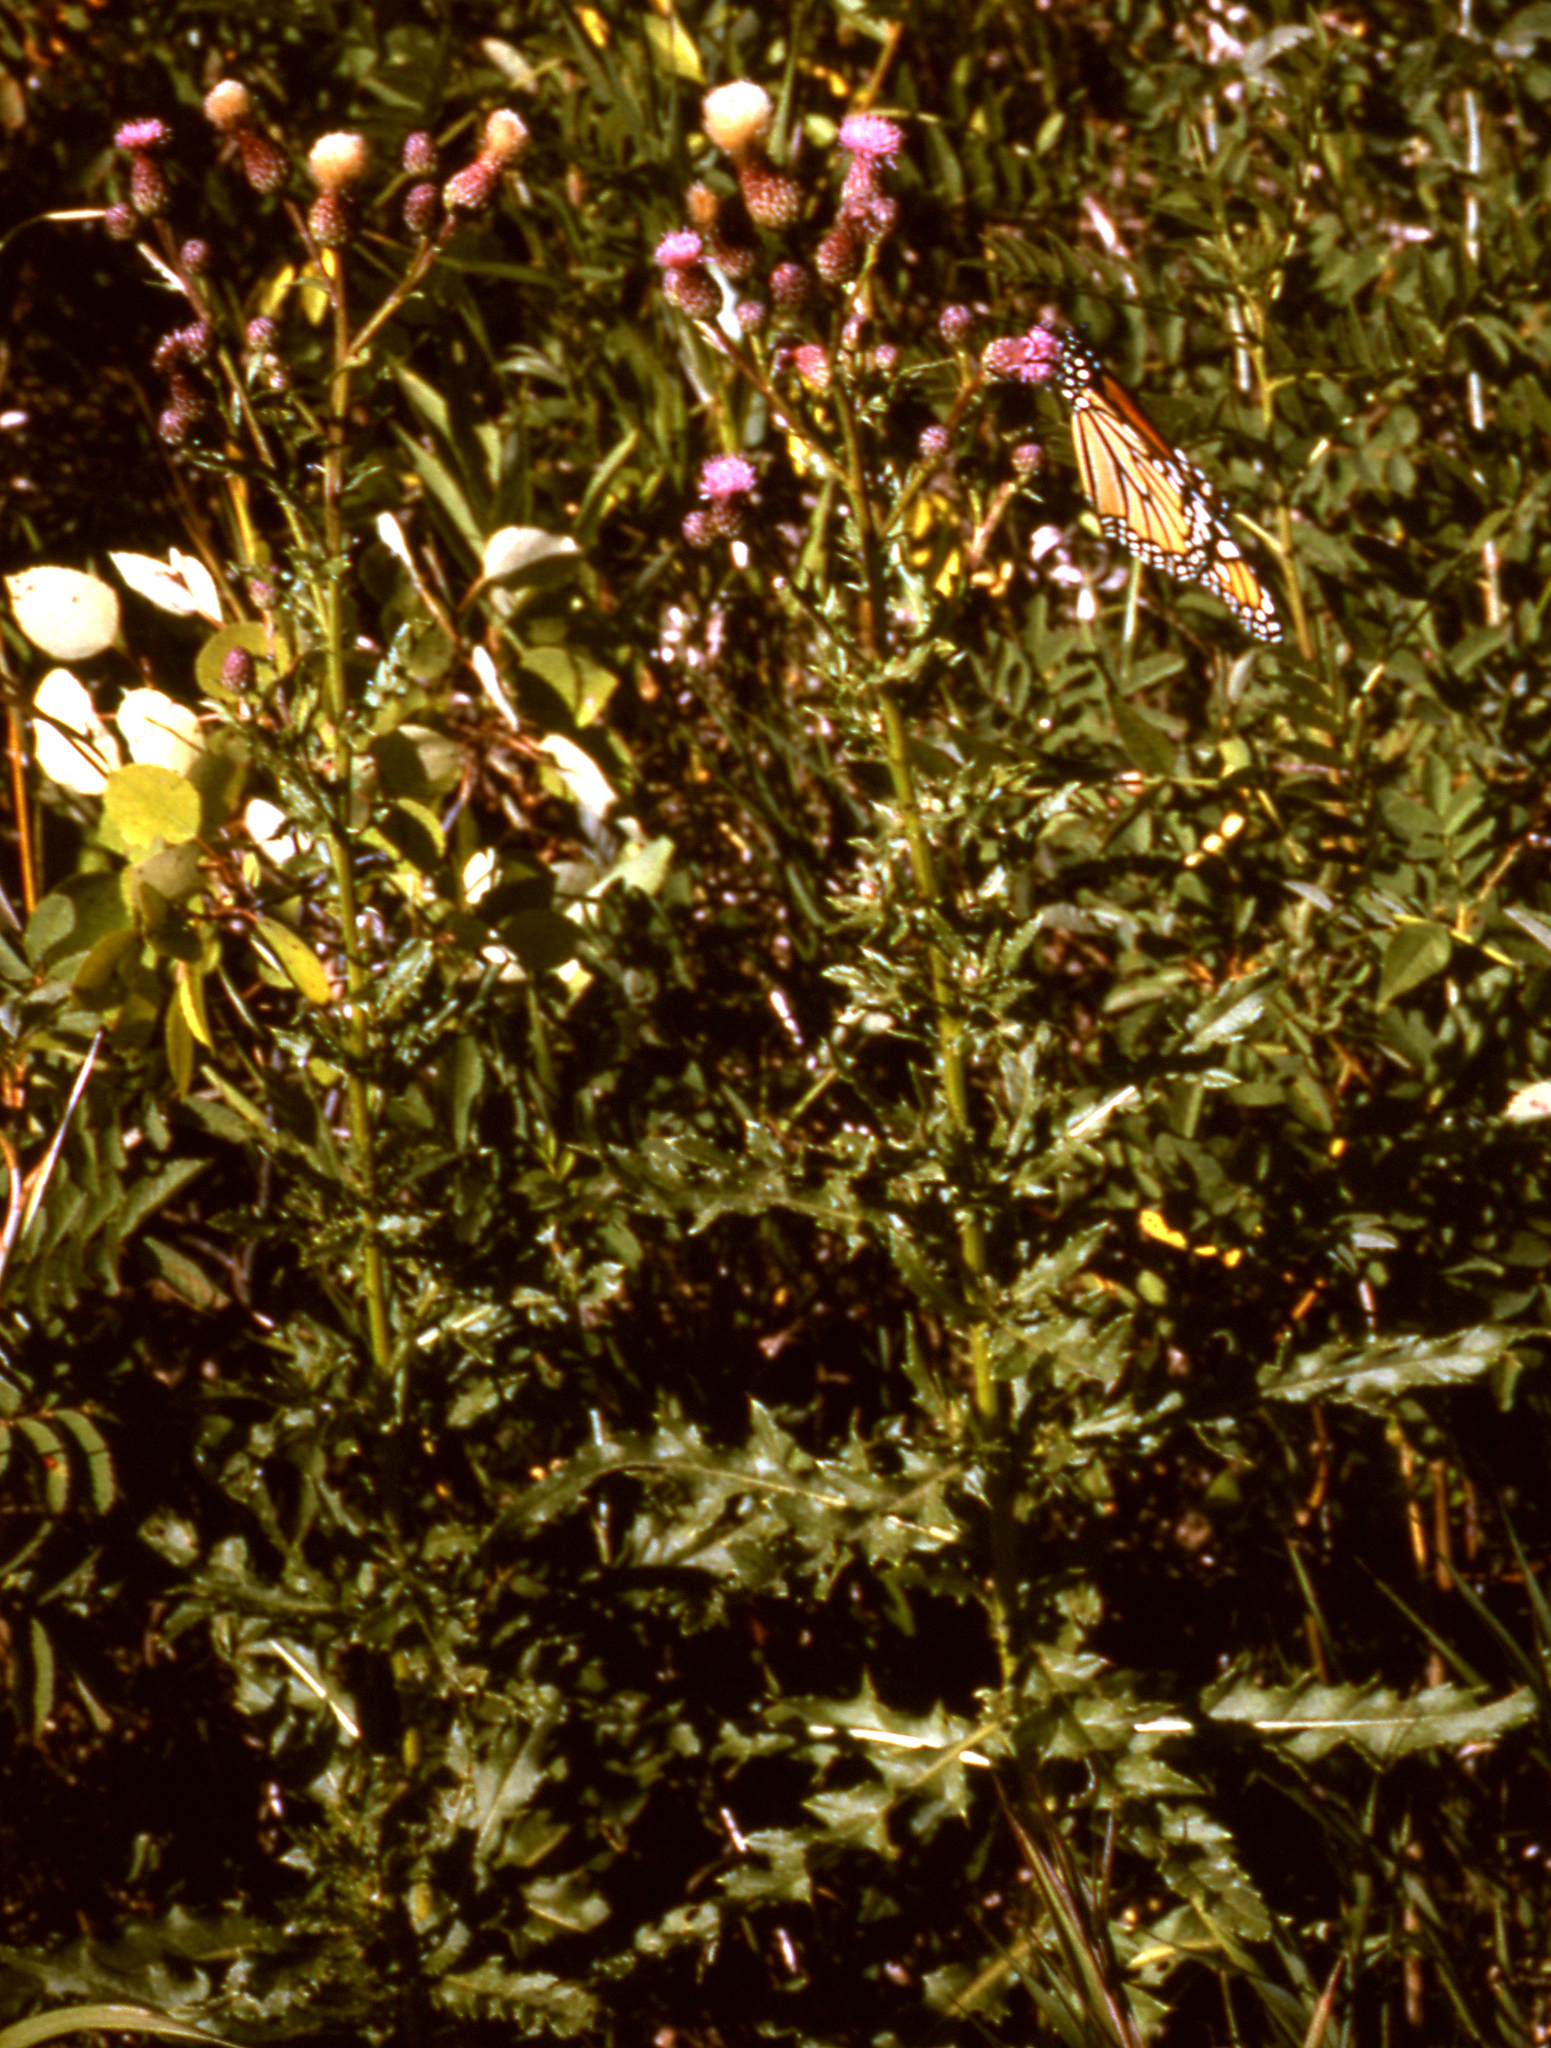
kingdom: Plantae
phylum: Tracheophyta
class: Magnoliopsida
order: Asterales
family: Asteraceae
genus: Cirsium
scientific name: Cirsium arvense
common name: Creeping thistle
